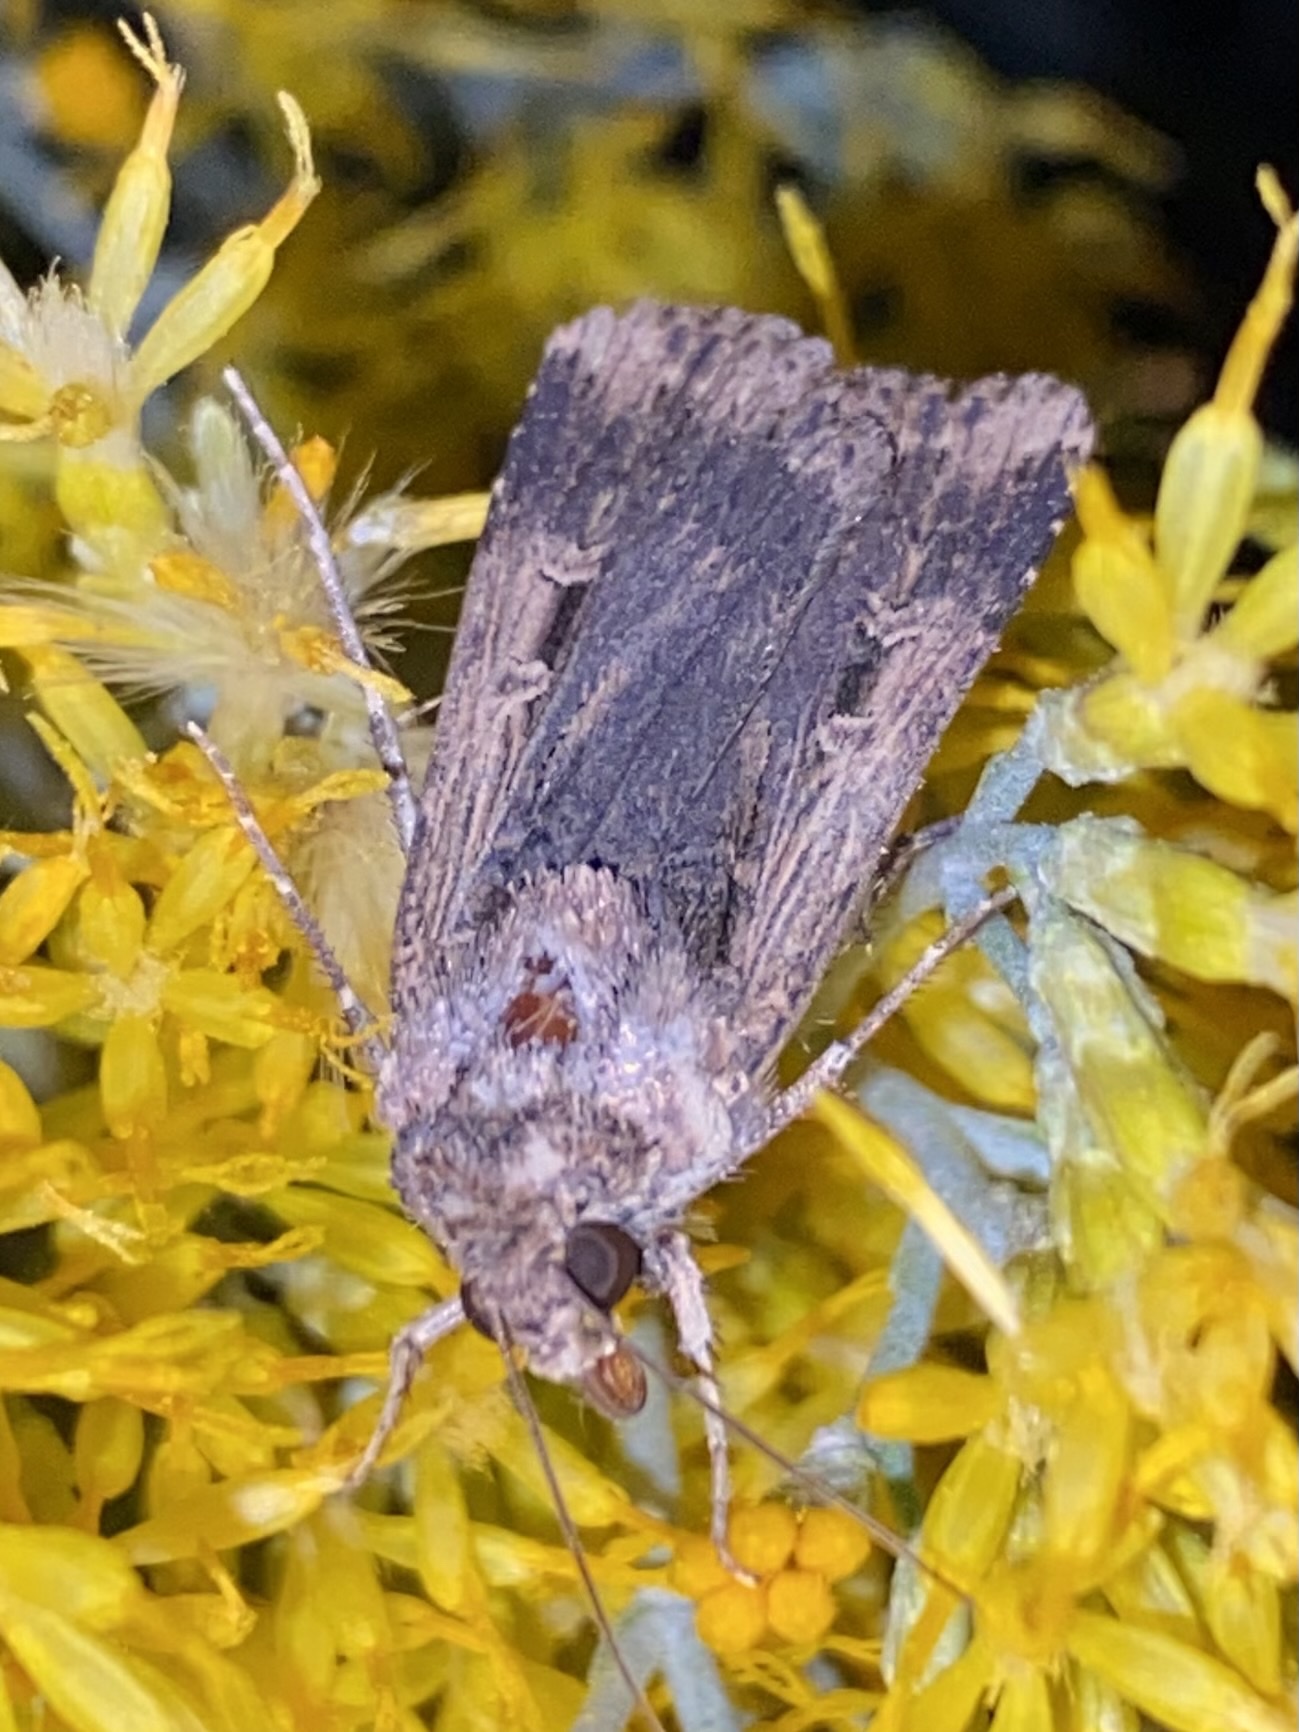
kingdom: Animalia
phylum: Arthropoda
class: Insecta
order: Lepidoptera
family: Noctuidae
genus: Feltia
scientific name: Feltia subterranea
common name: Granulate cutworm
